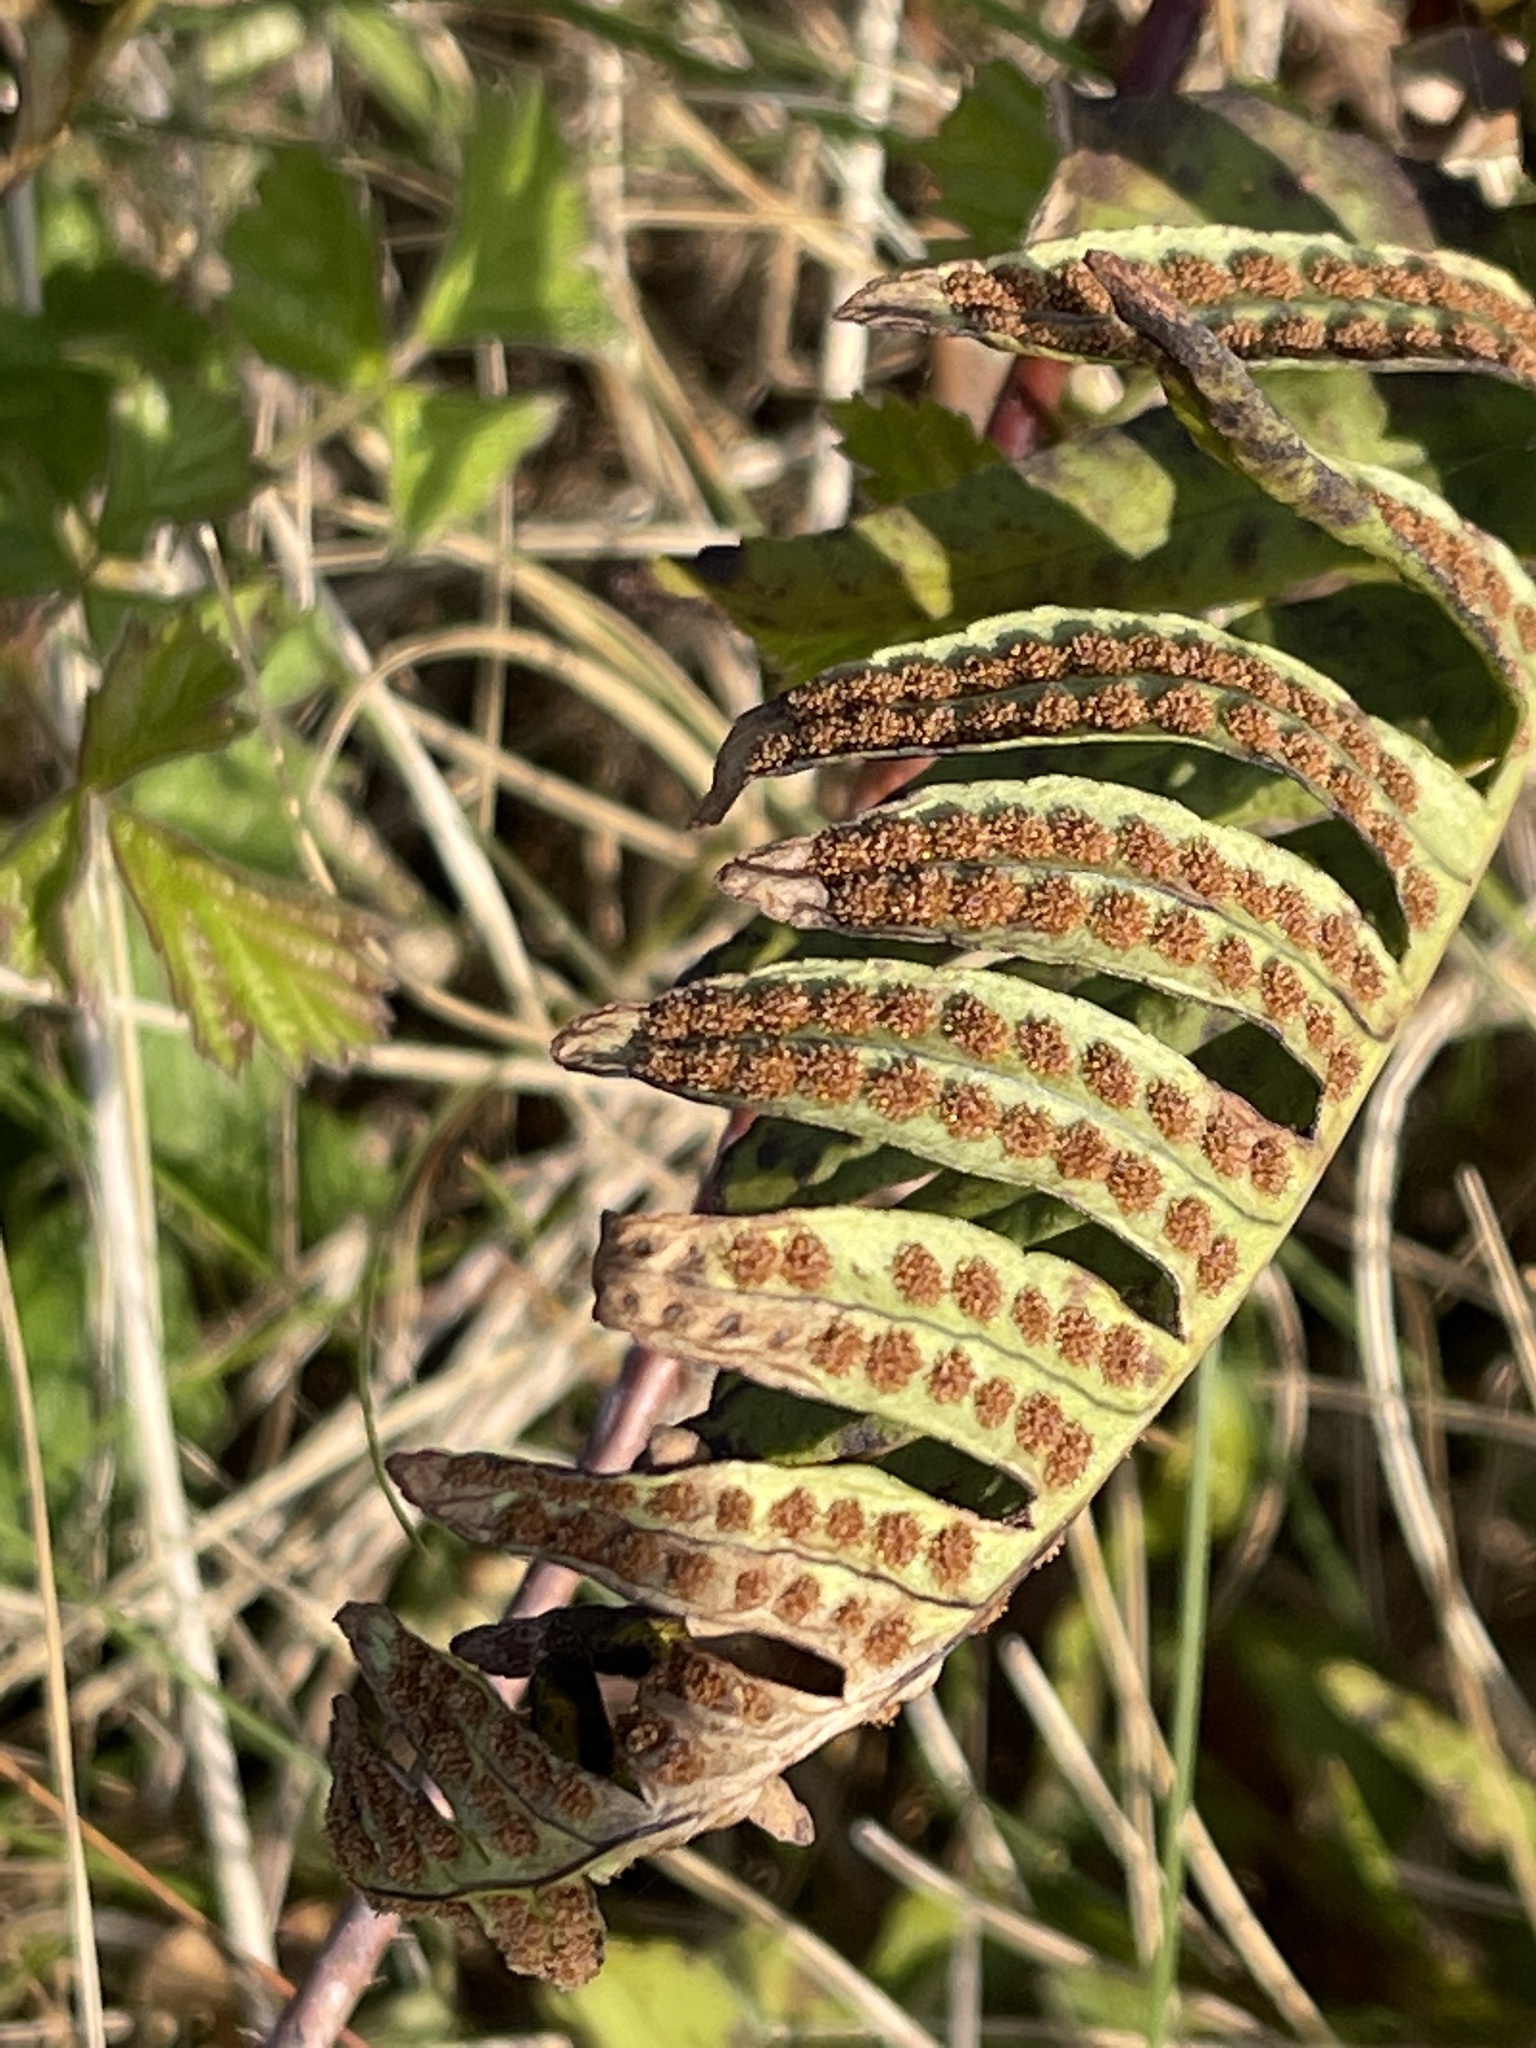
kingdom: Plantae
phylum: Tracheophyta
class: Polypodiopsida
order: Polypodiales
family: Polypodiaceae
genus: Polypodium
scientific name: Polypodium vulgare
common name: Common polypody
